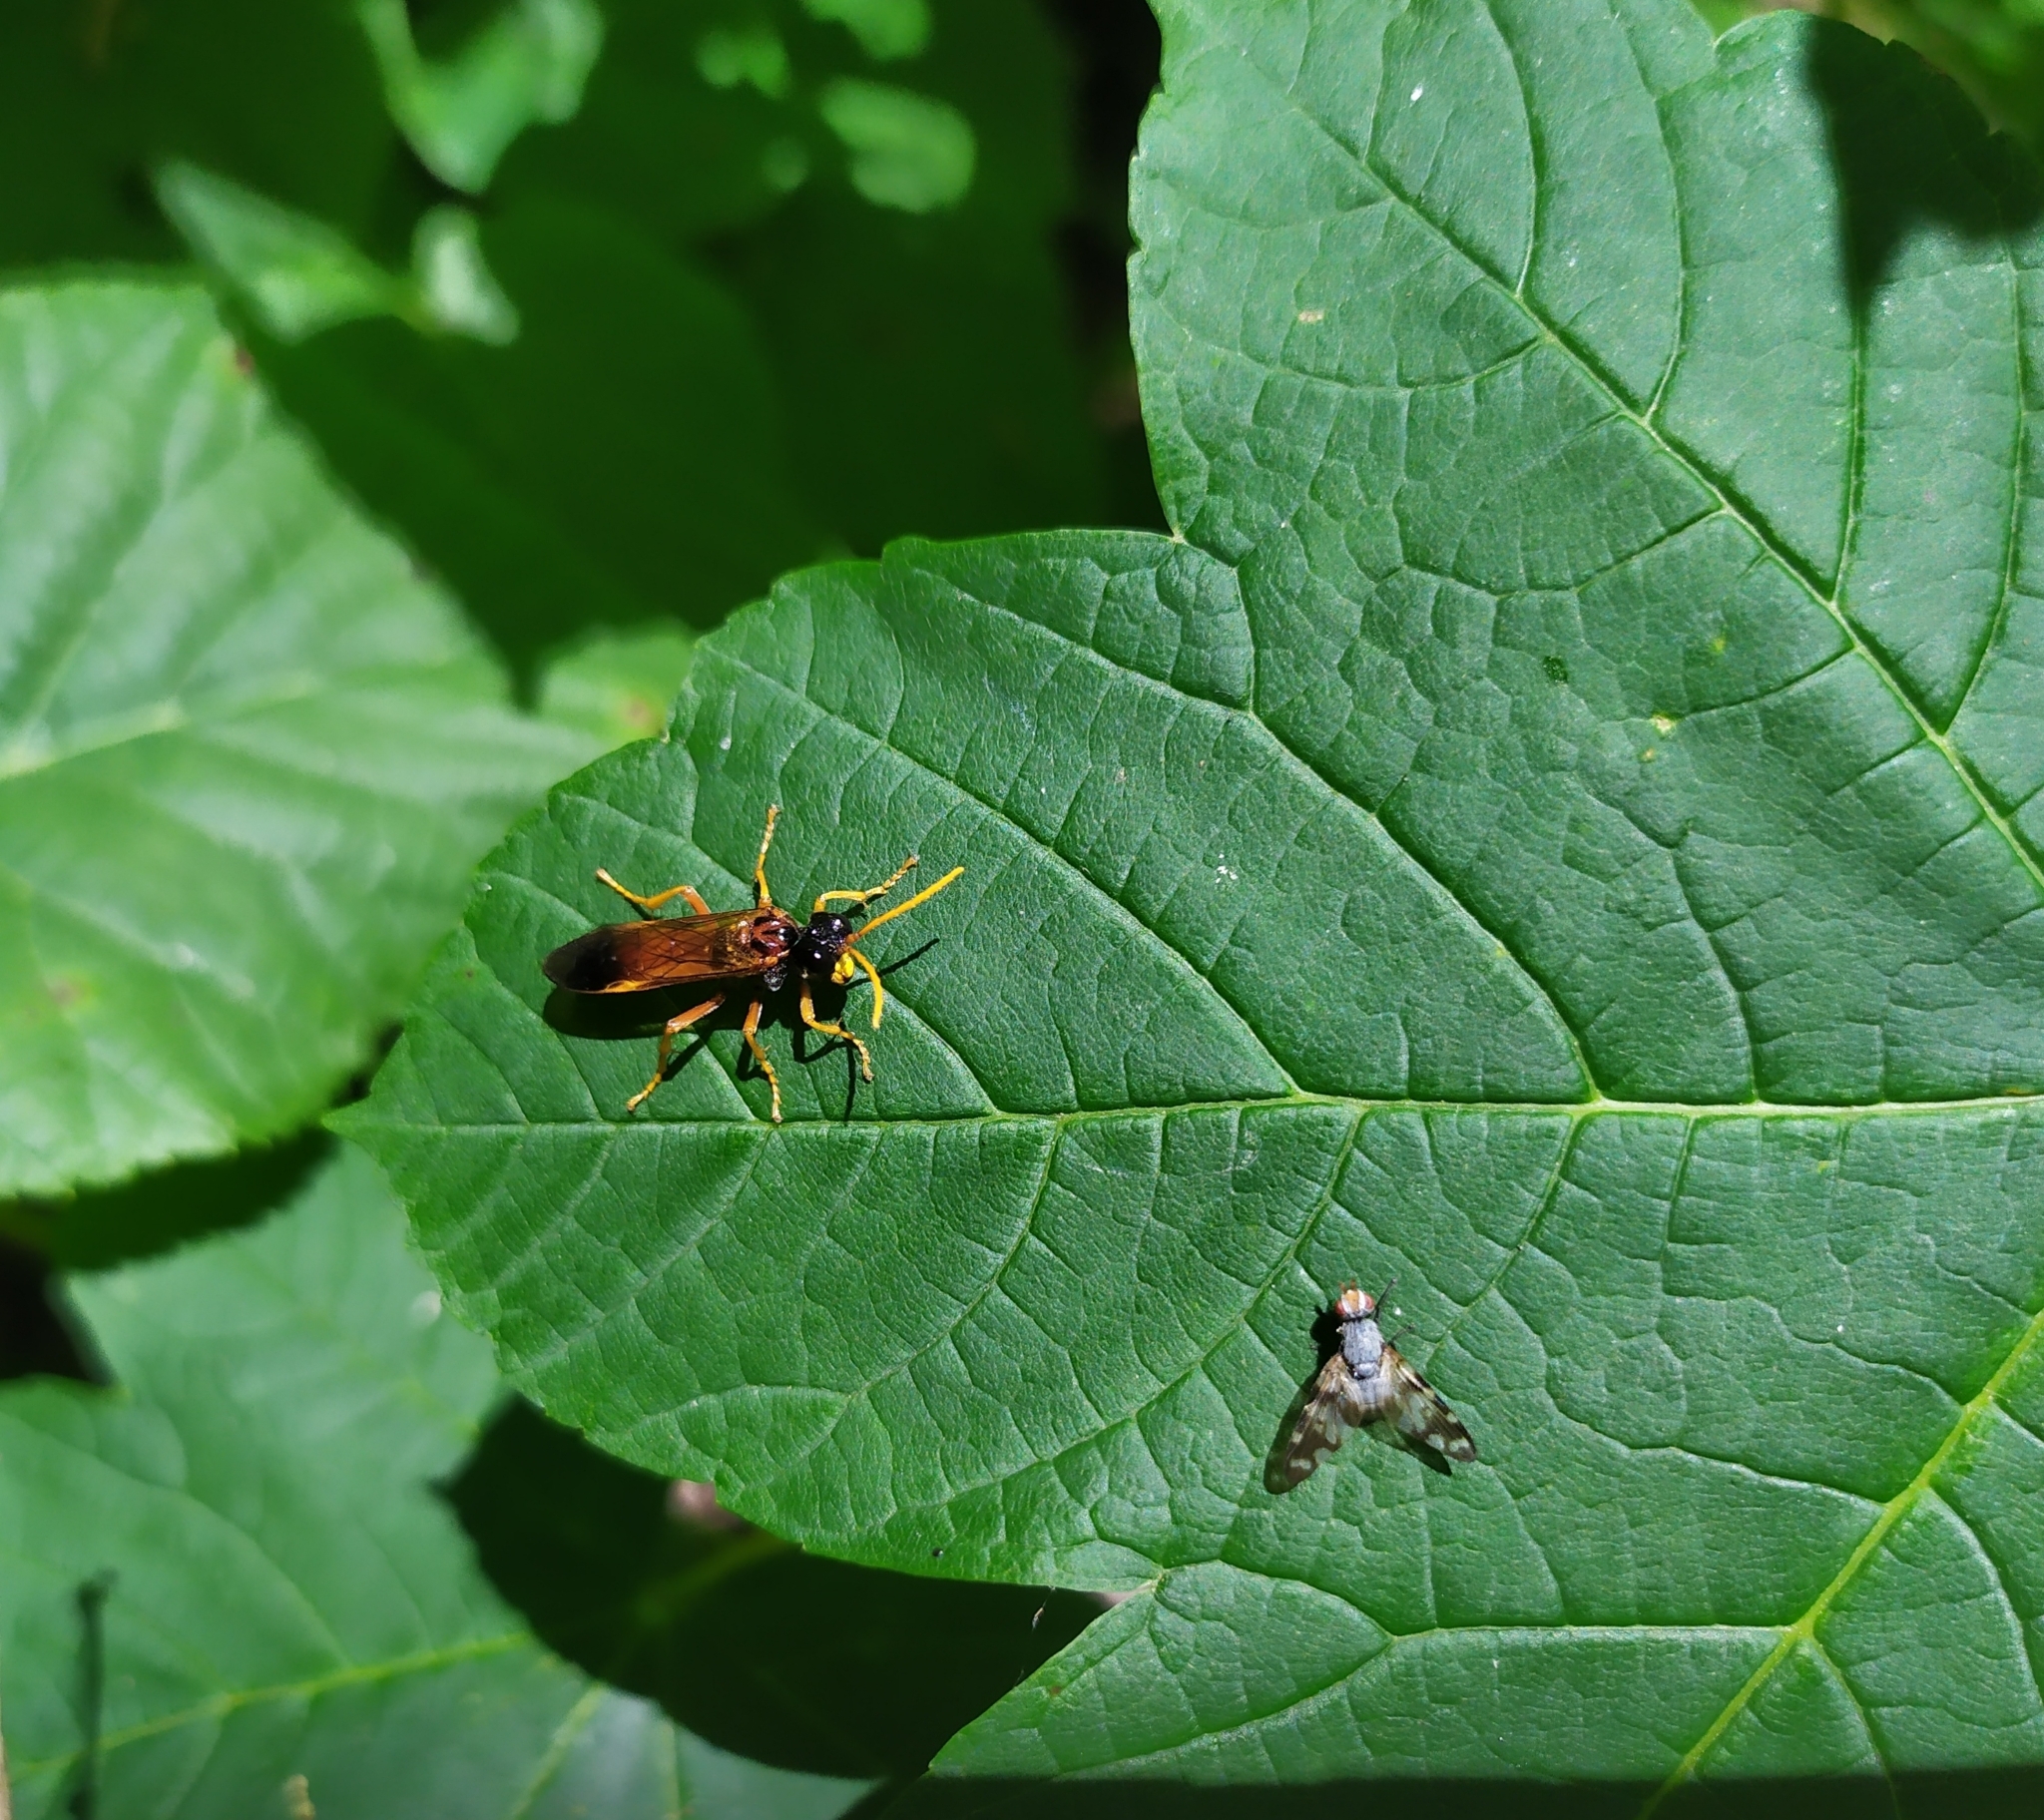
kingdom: Animalia
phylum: Arthropoda
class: Insecta
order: Hymenoptera
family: Tenthredinidae
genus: Tenthredo
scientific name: Tenthredo campestris
